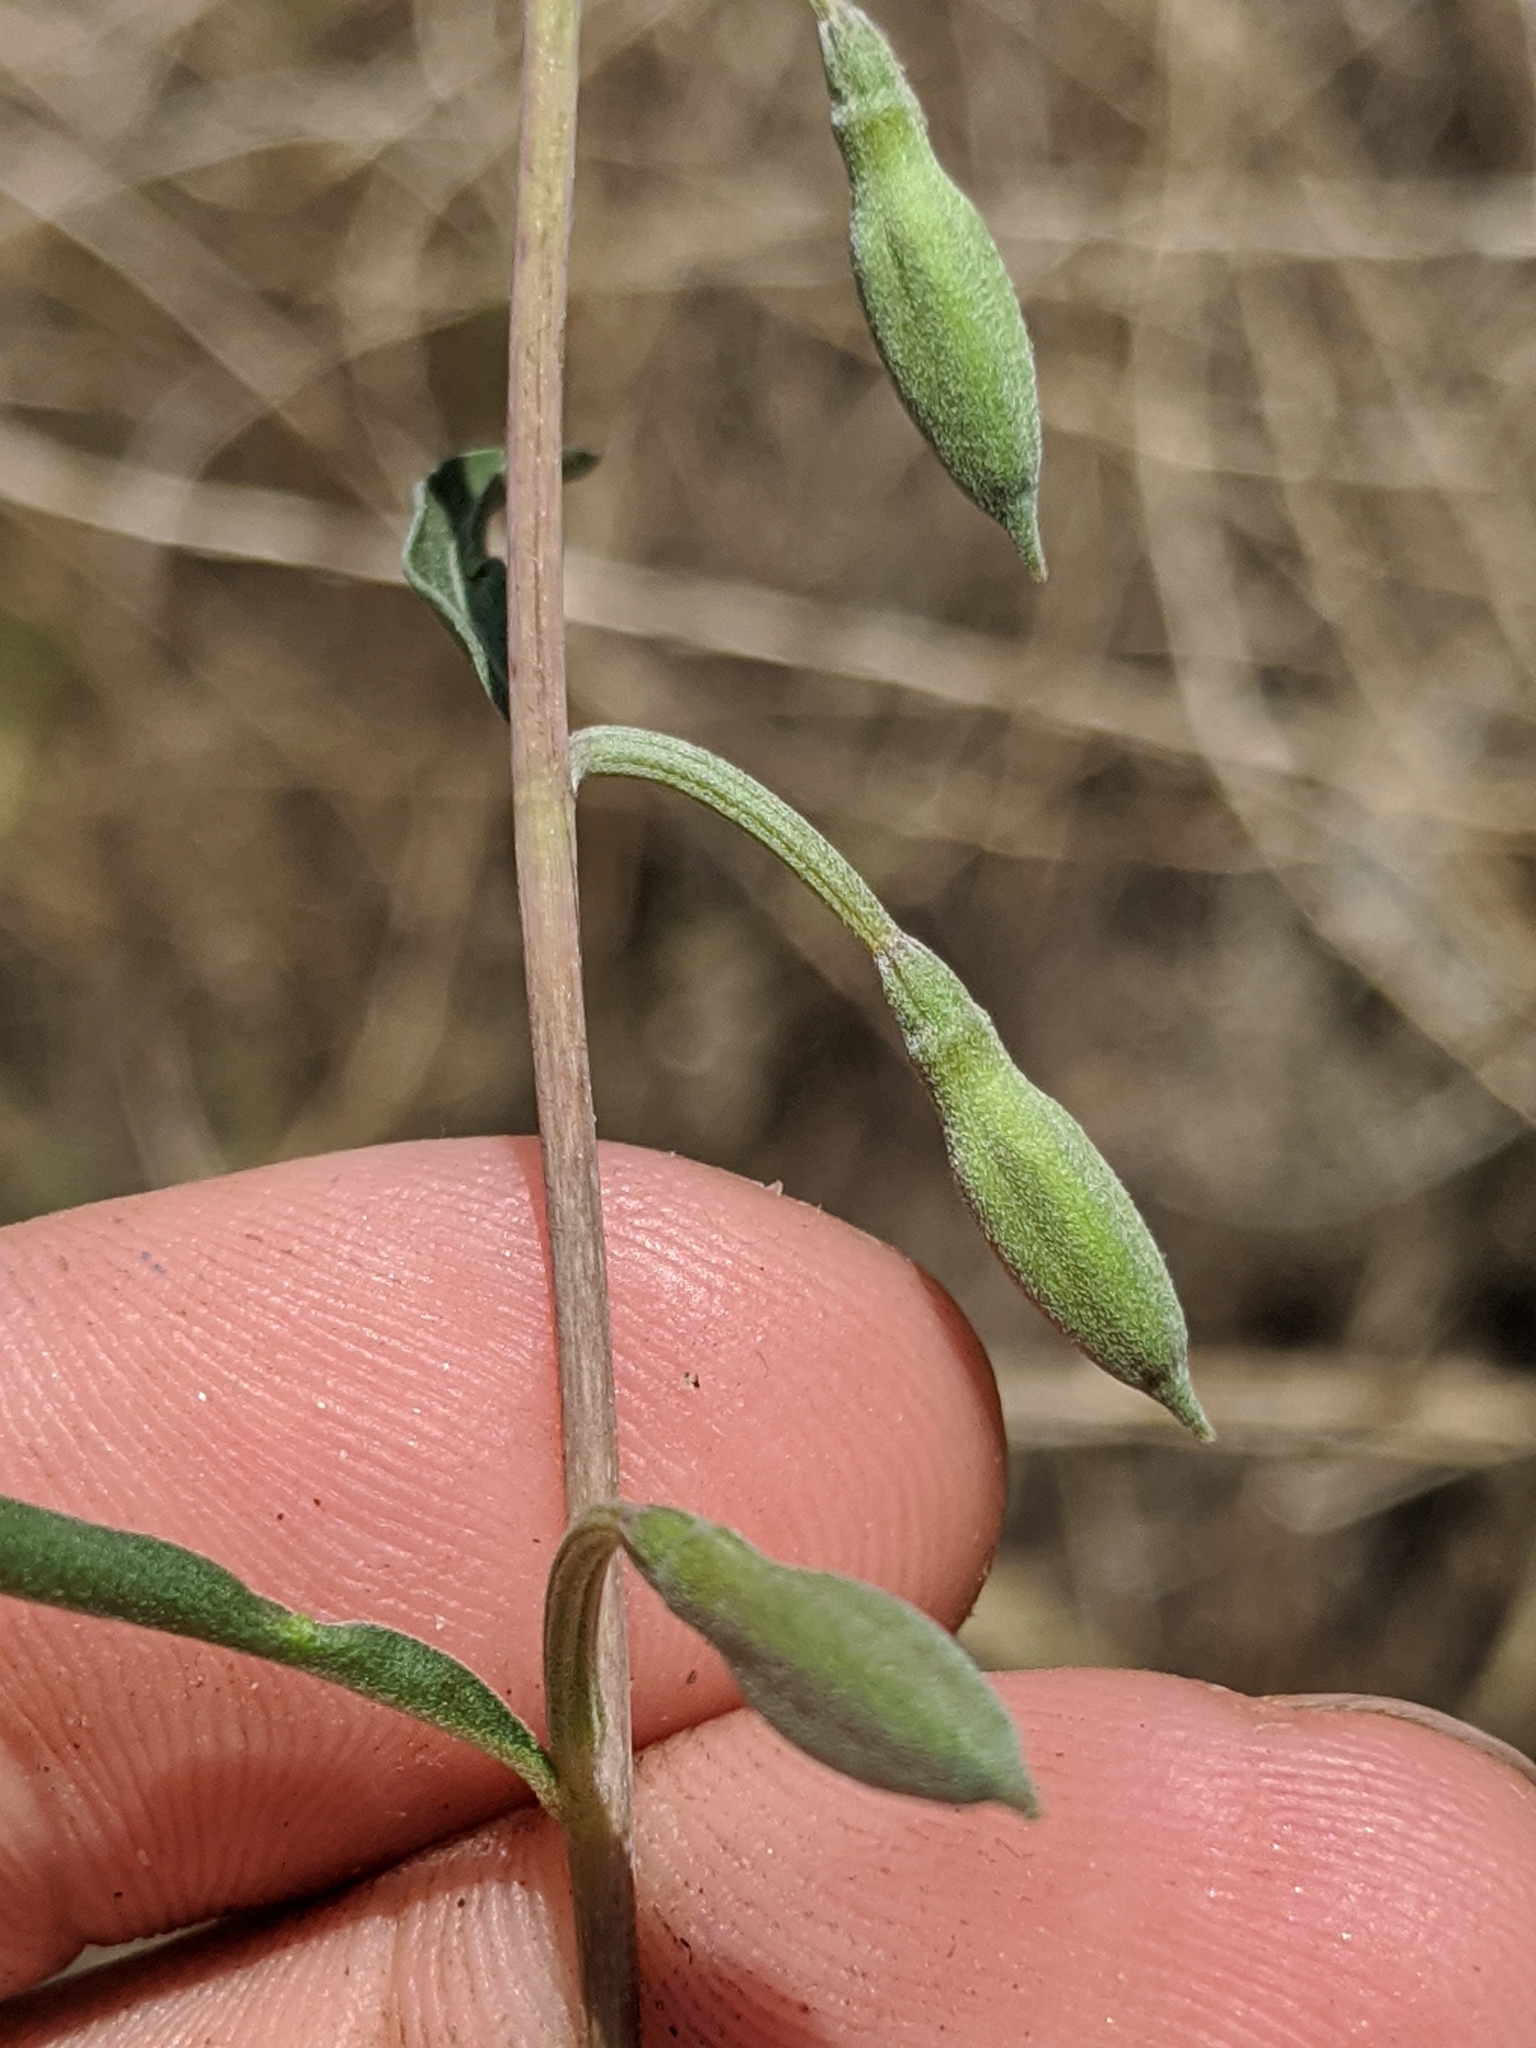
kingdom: Plantae
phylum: Tracheophyta
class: Magnoliopsida
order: Myrtales
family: Onagraceae
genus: Clarkia
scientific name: Clarkia xantiana
